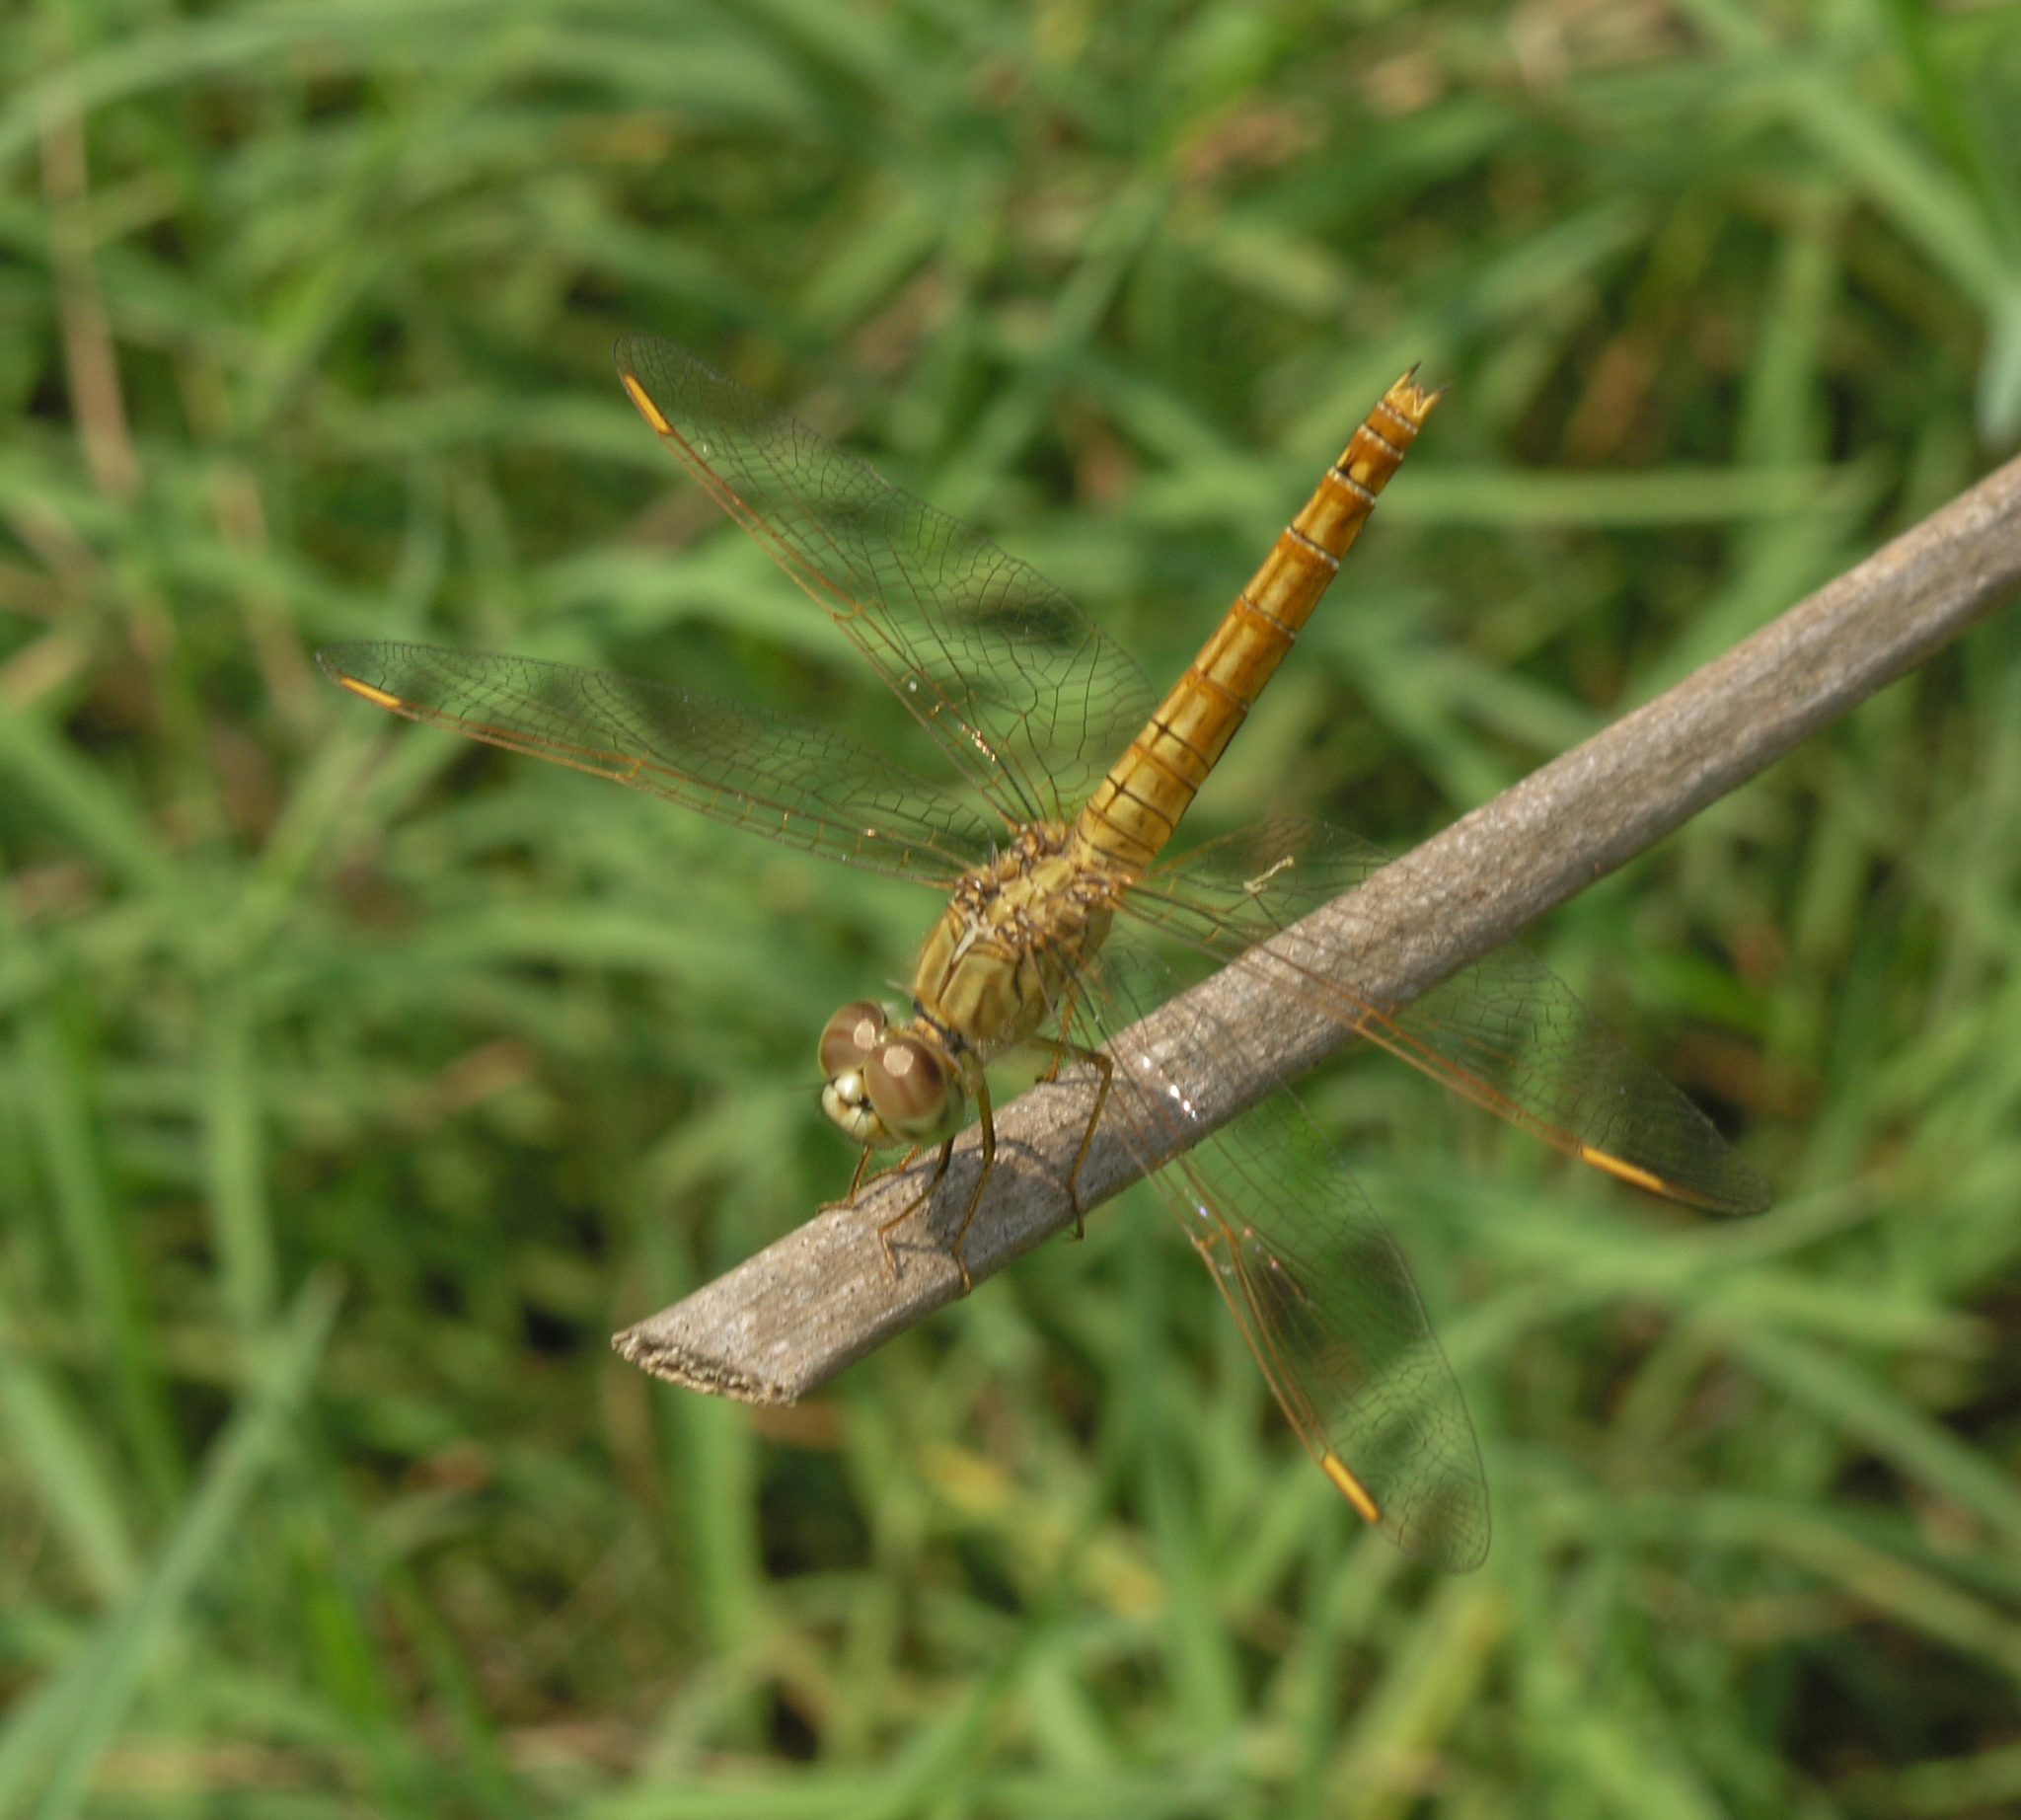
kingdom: Animalia
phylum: Arthropoda
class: Insecta
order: Odonata
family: Libellulidae
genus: Brachythemis
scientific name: Brachythemis contaminata
